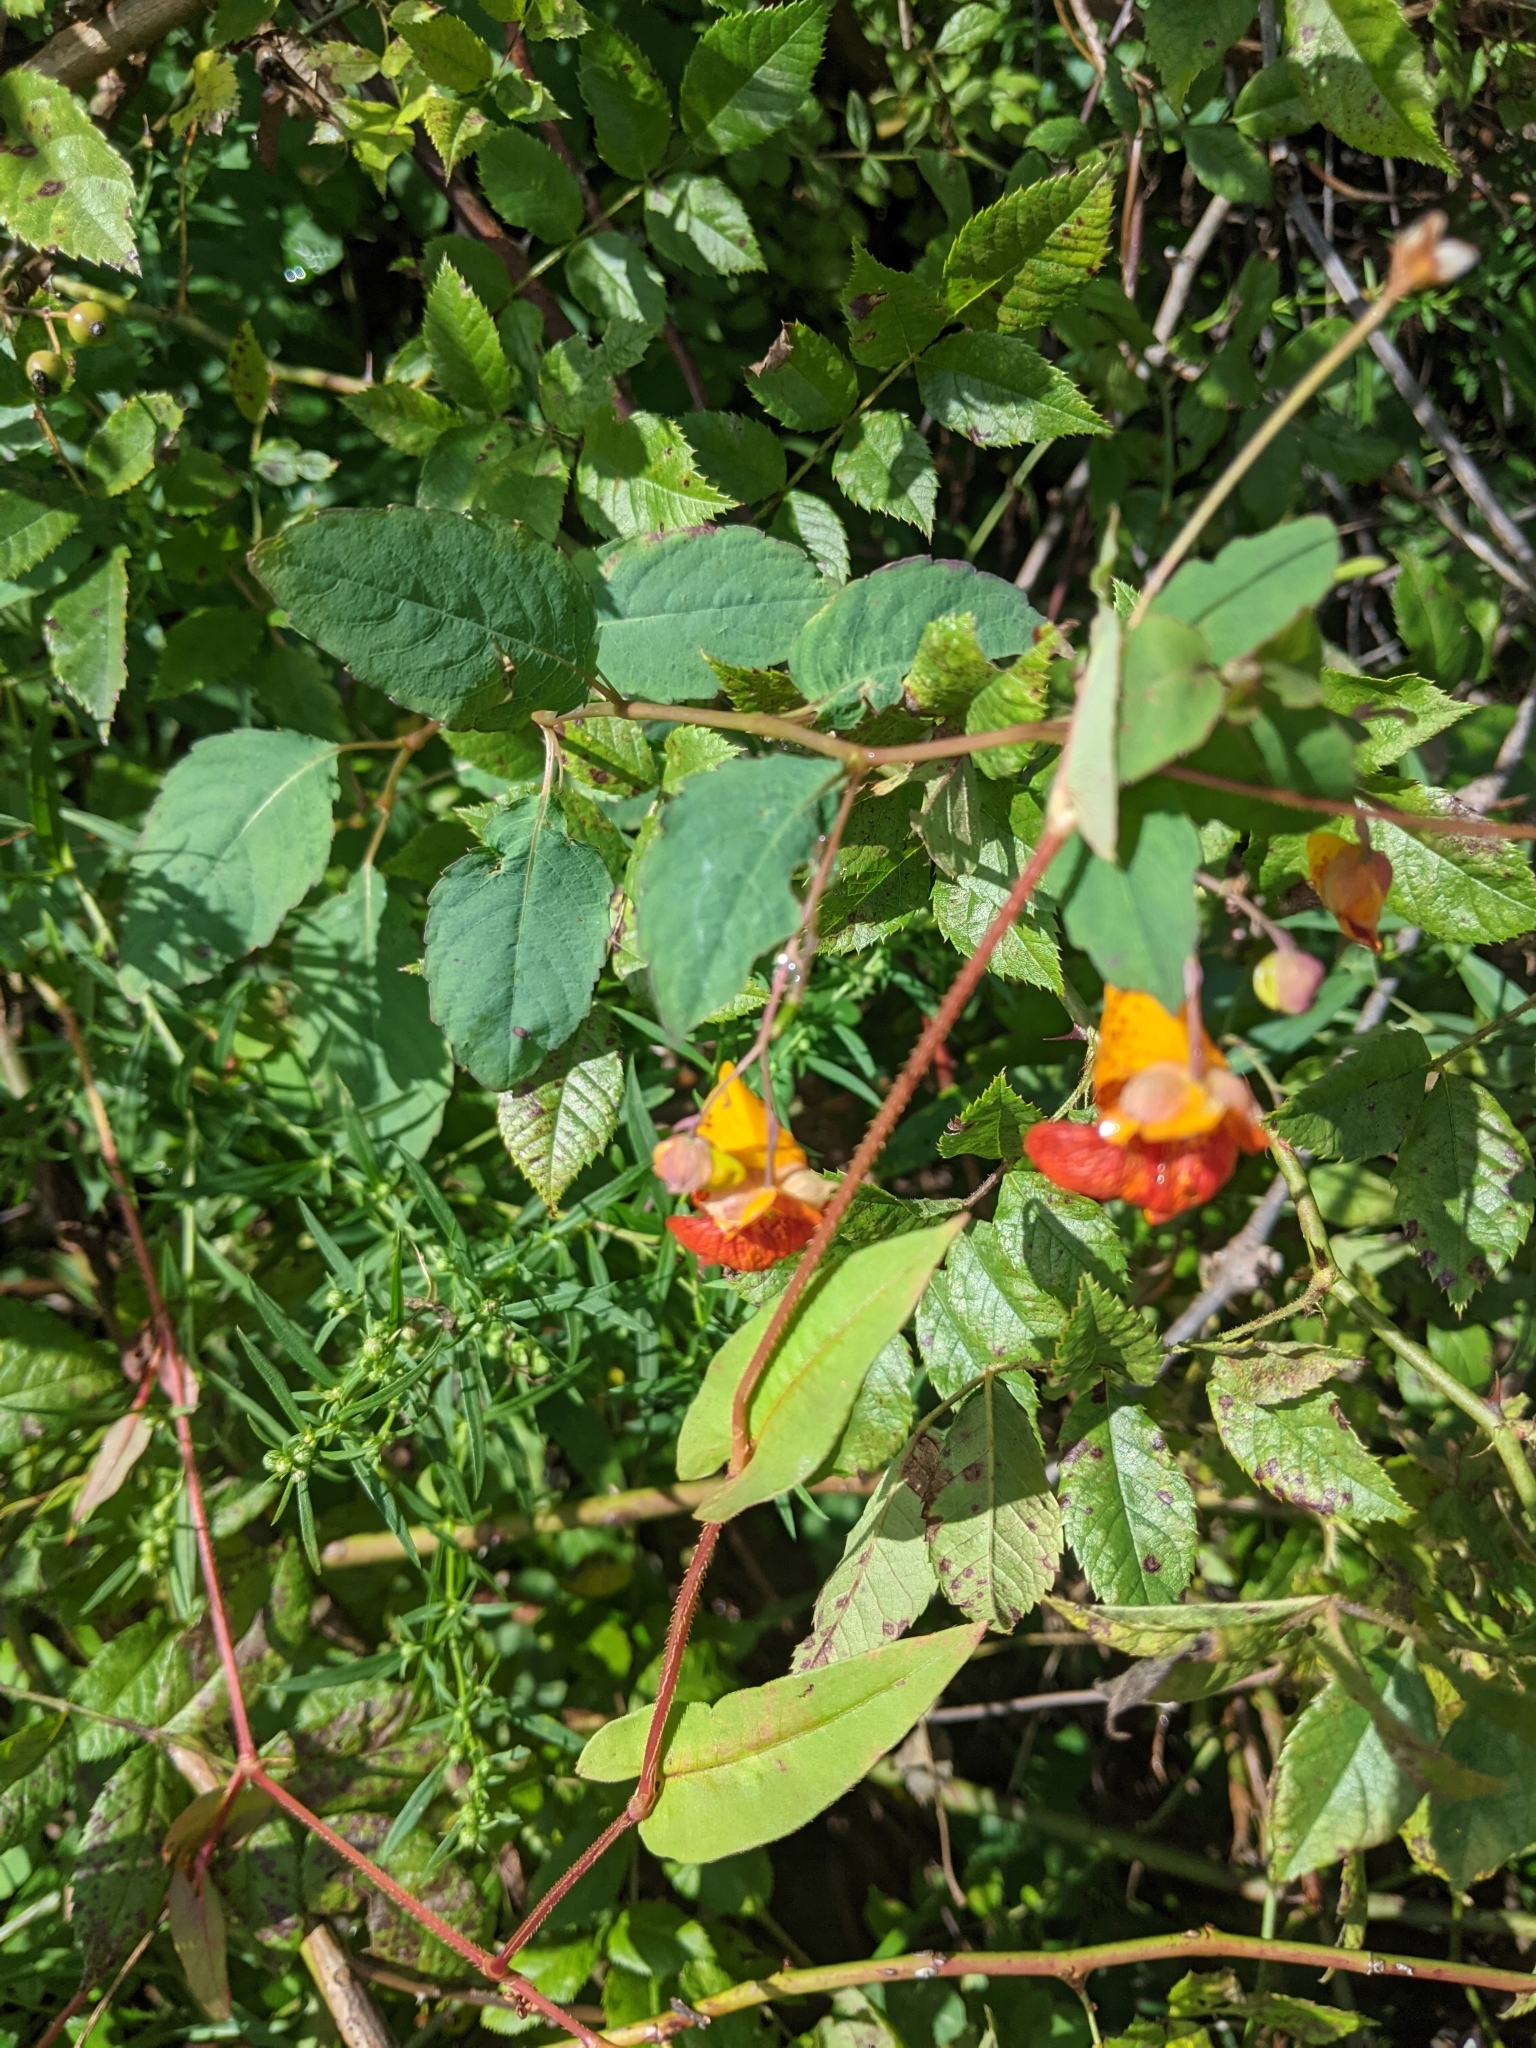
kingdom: Plantae
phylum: Tracheophyta
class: Magnoliopsida
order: Ericales
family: Balsaminaceae
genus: Impatiens
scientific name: Impatiens capensis
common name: Orange balsam
